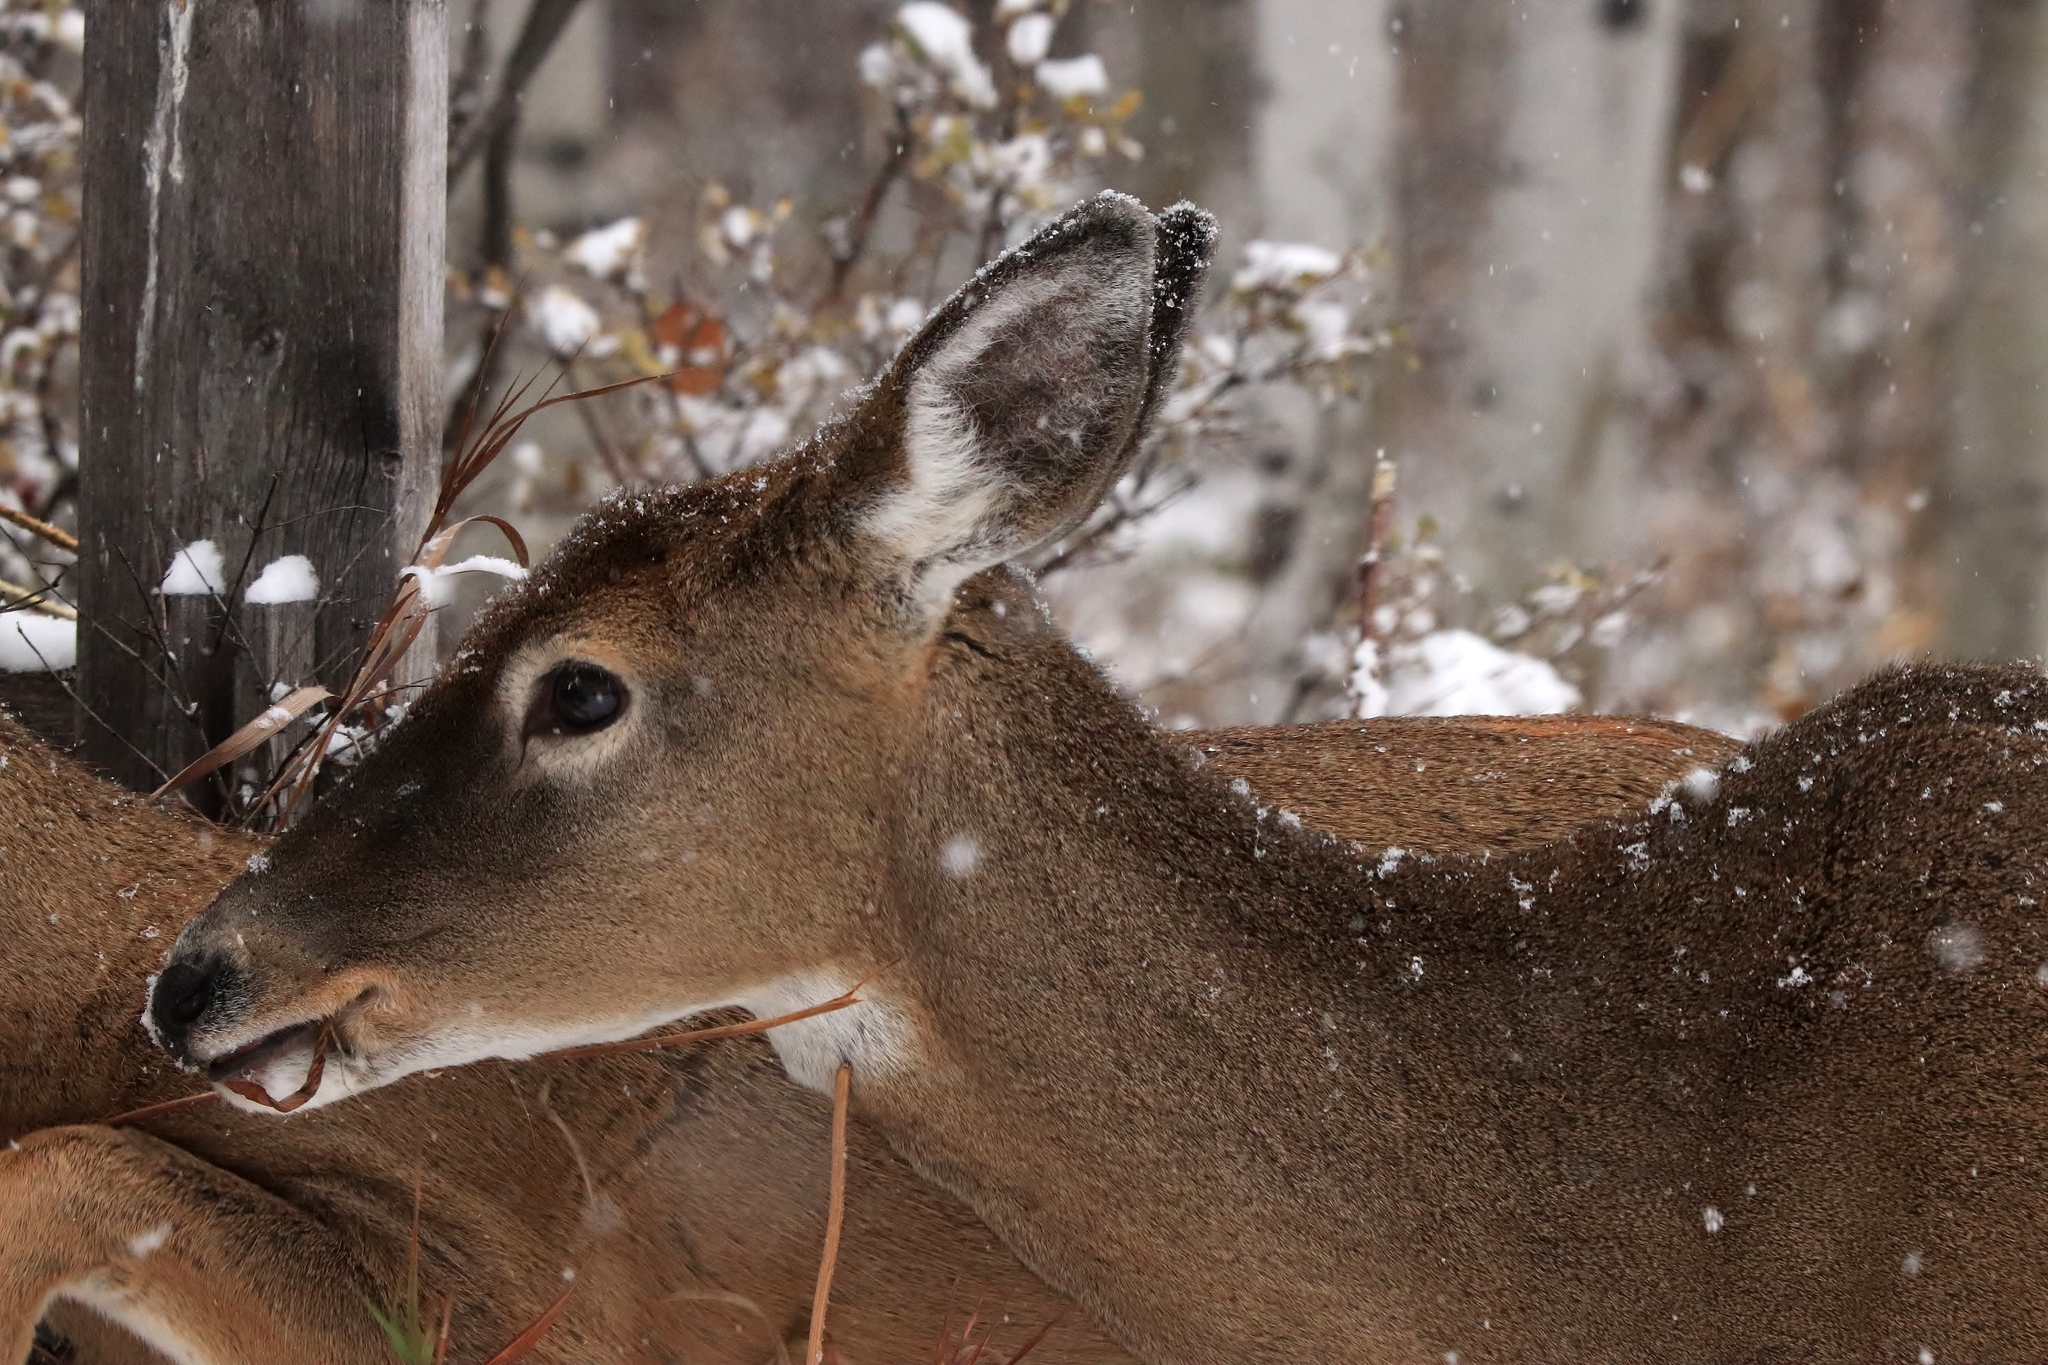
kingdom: Animalia
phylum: Chordata
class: Mammalia
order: Artiodactyla
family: Cervidae
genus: Odocoileus
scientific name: Odocoileus virginianus
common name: White-tailed deer
